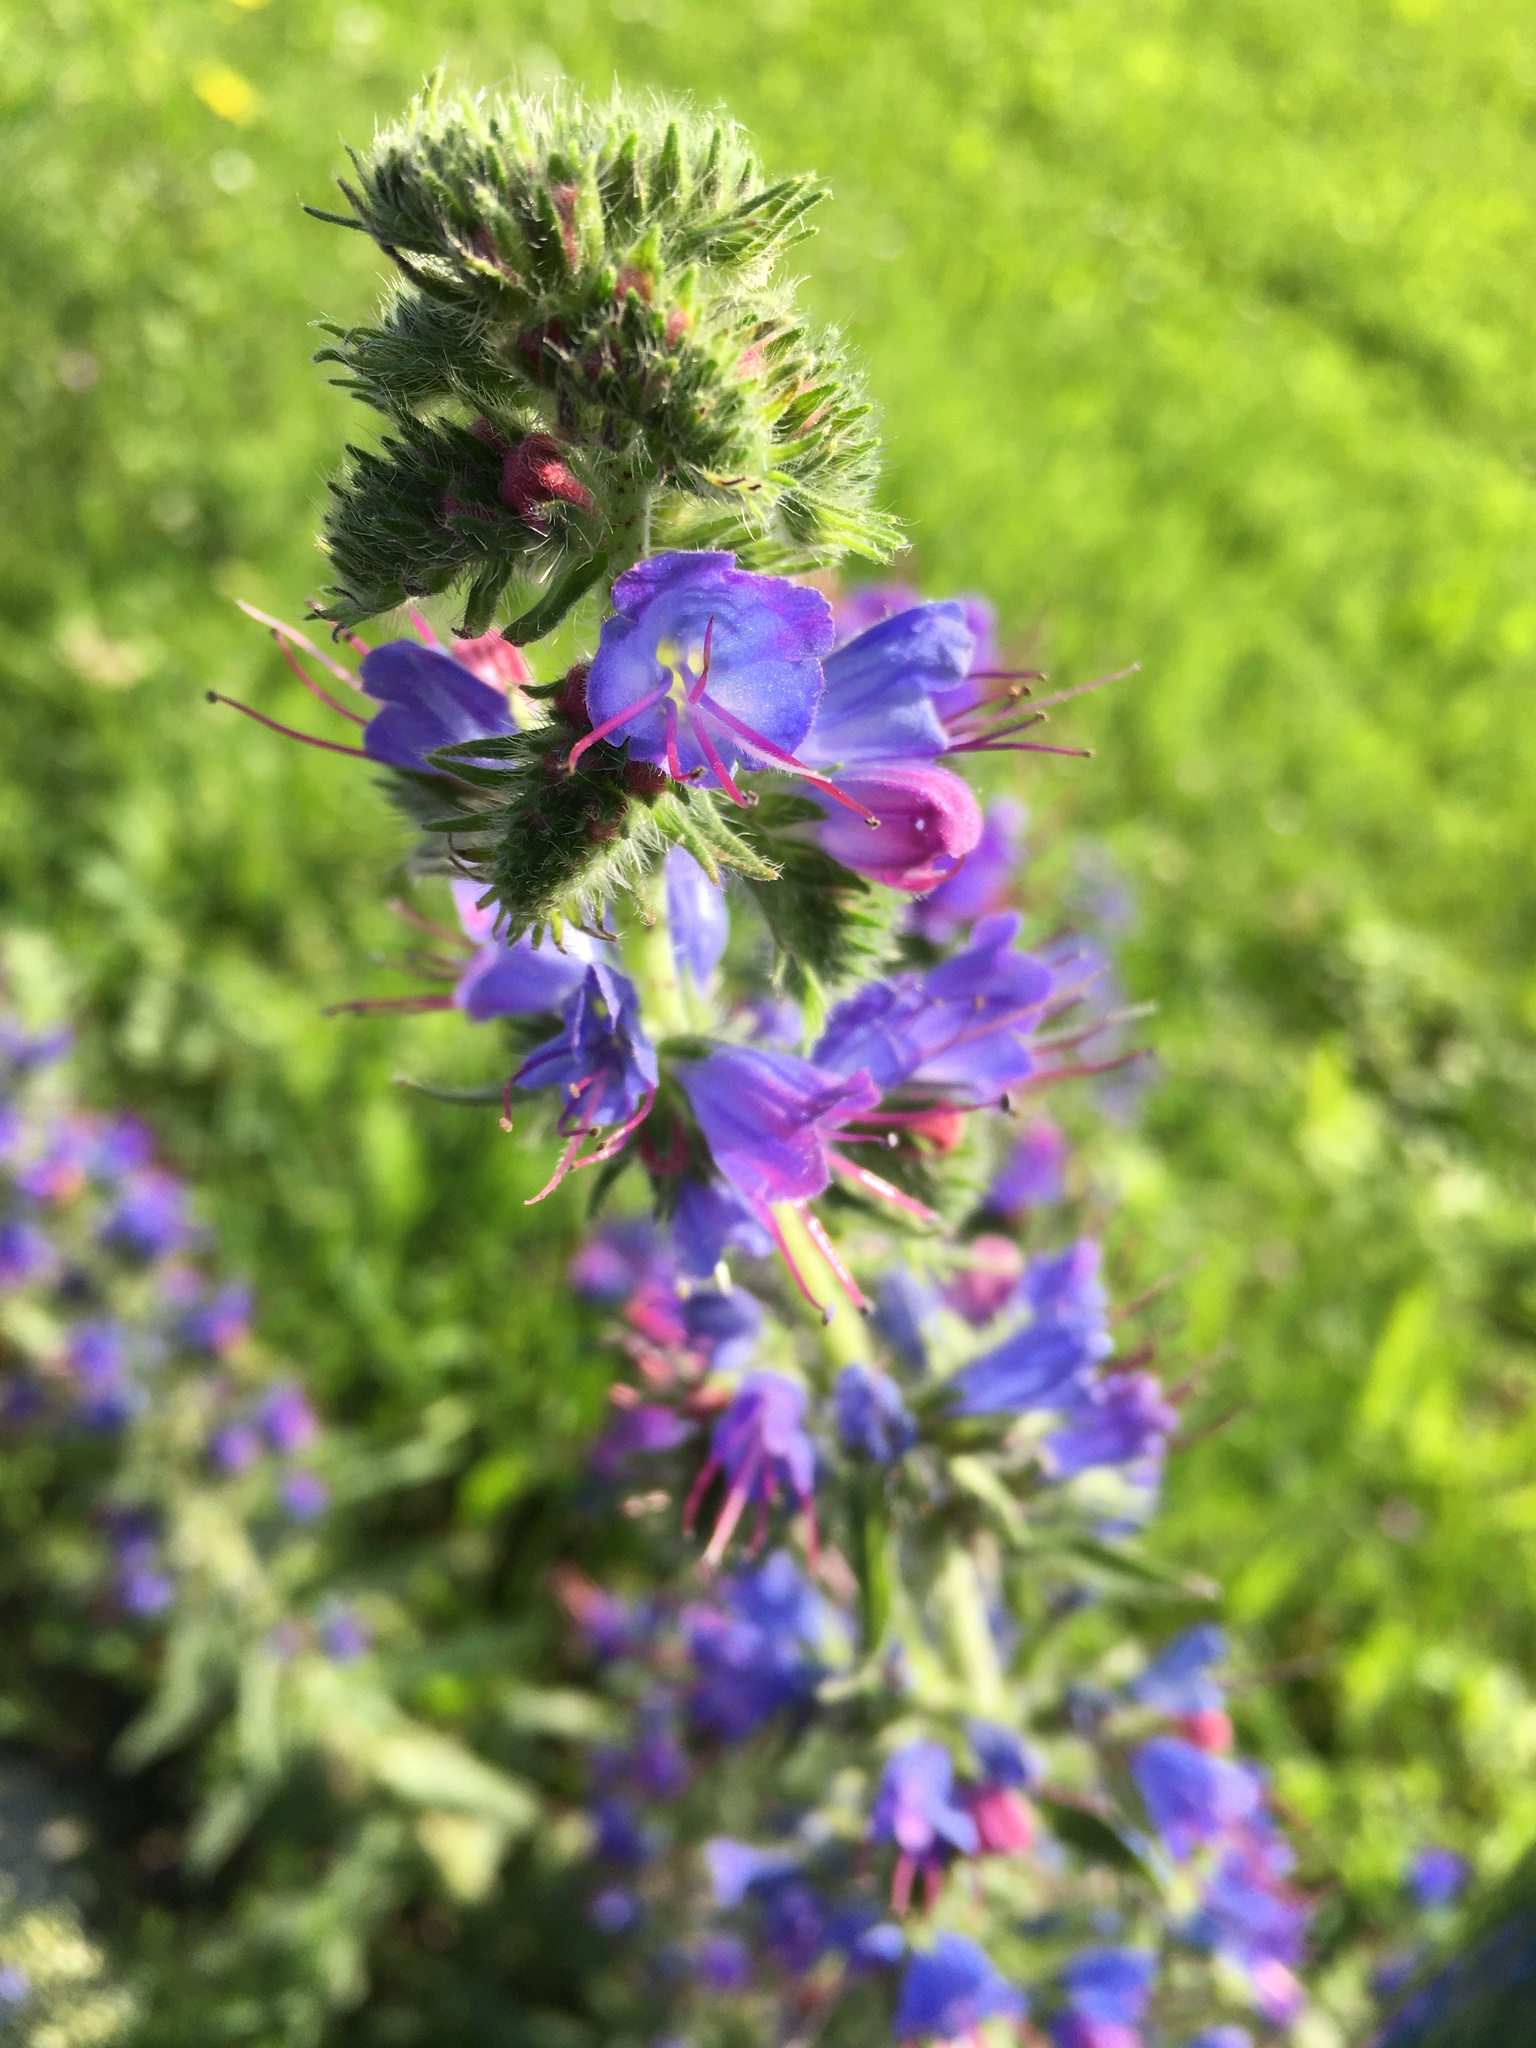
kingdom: Plantae
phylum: Tracheophyta
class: Magnoliopsida
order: Boraginales
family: Boraginaceae
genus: Echium
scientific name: Echium vulgare
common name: Common viper's bugloss
